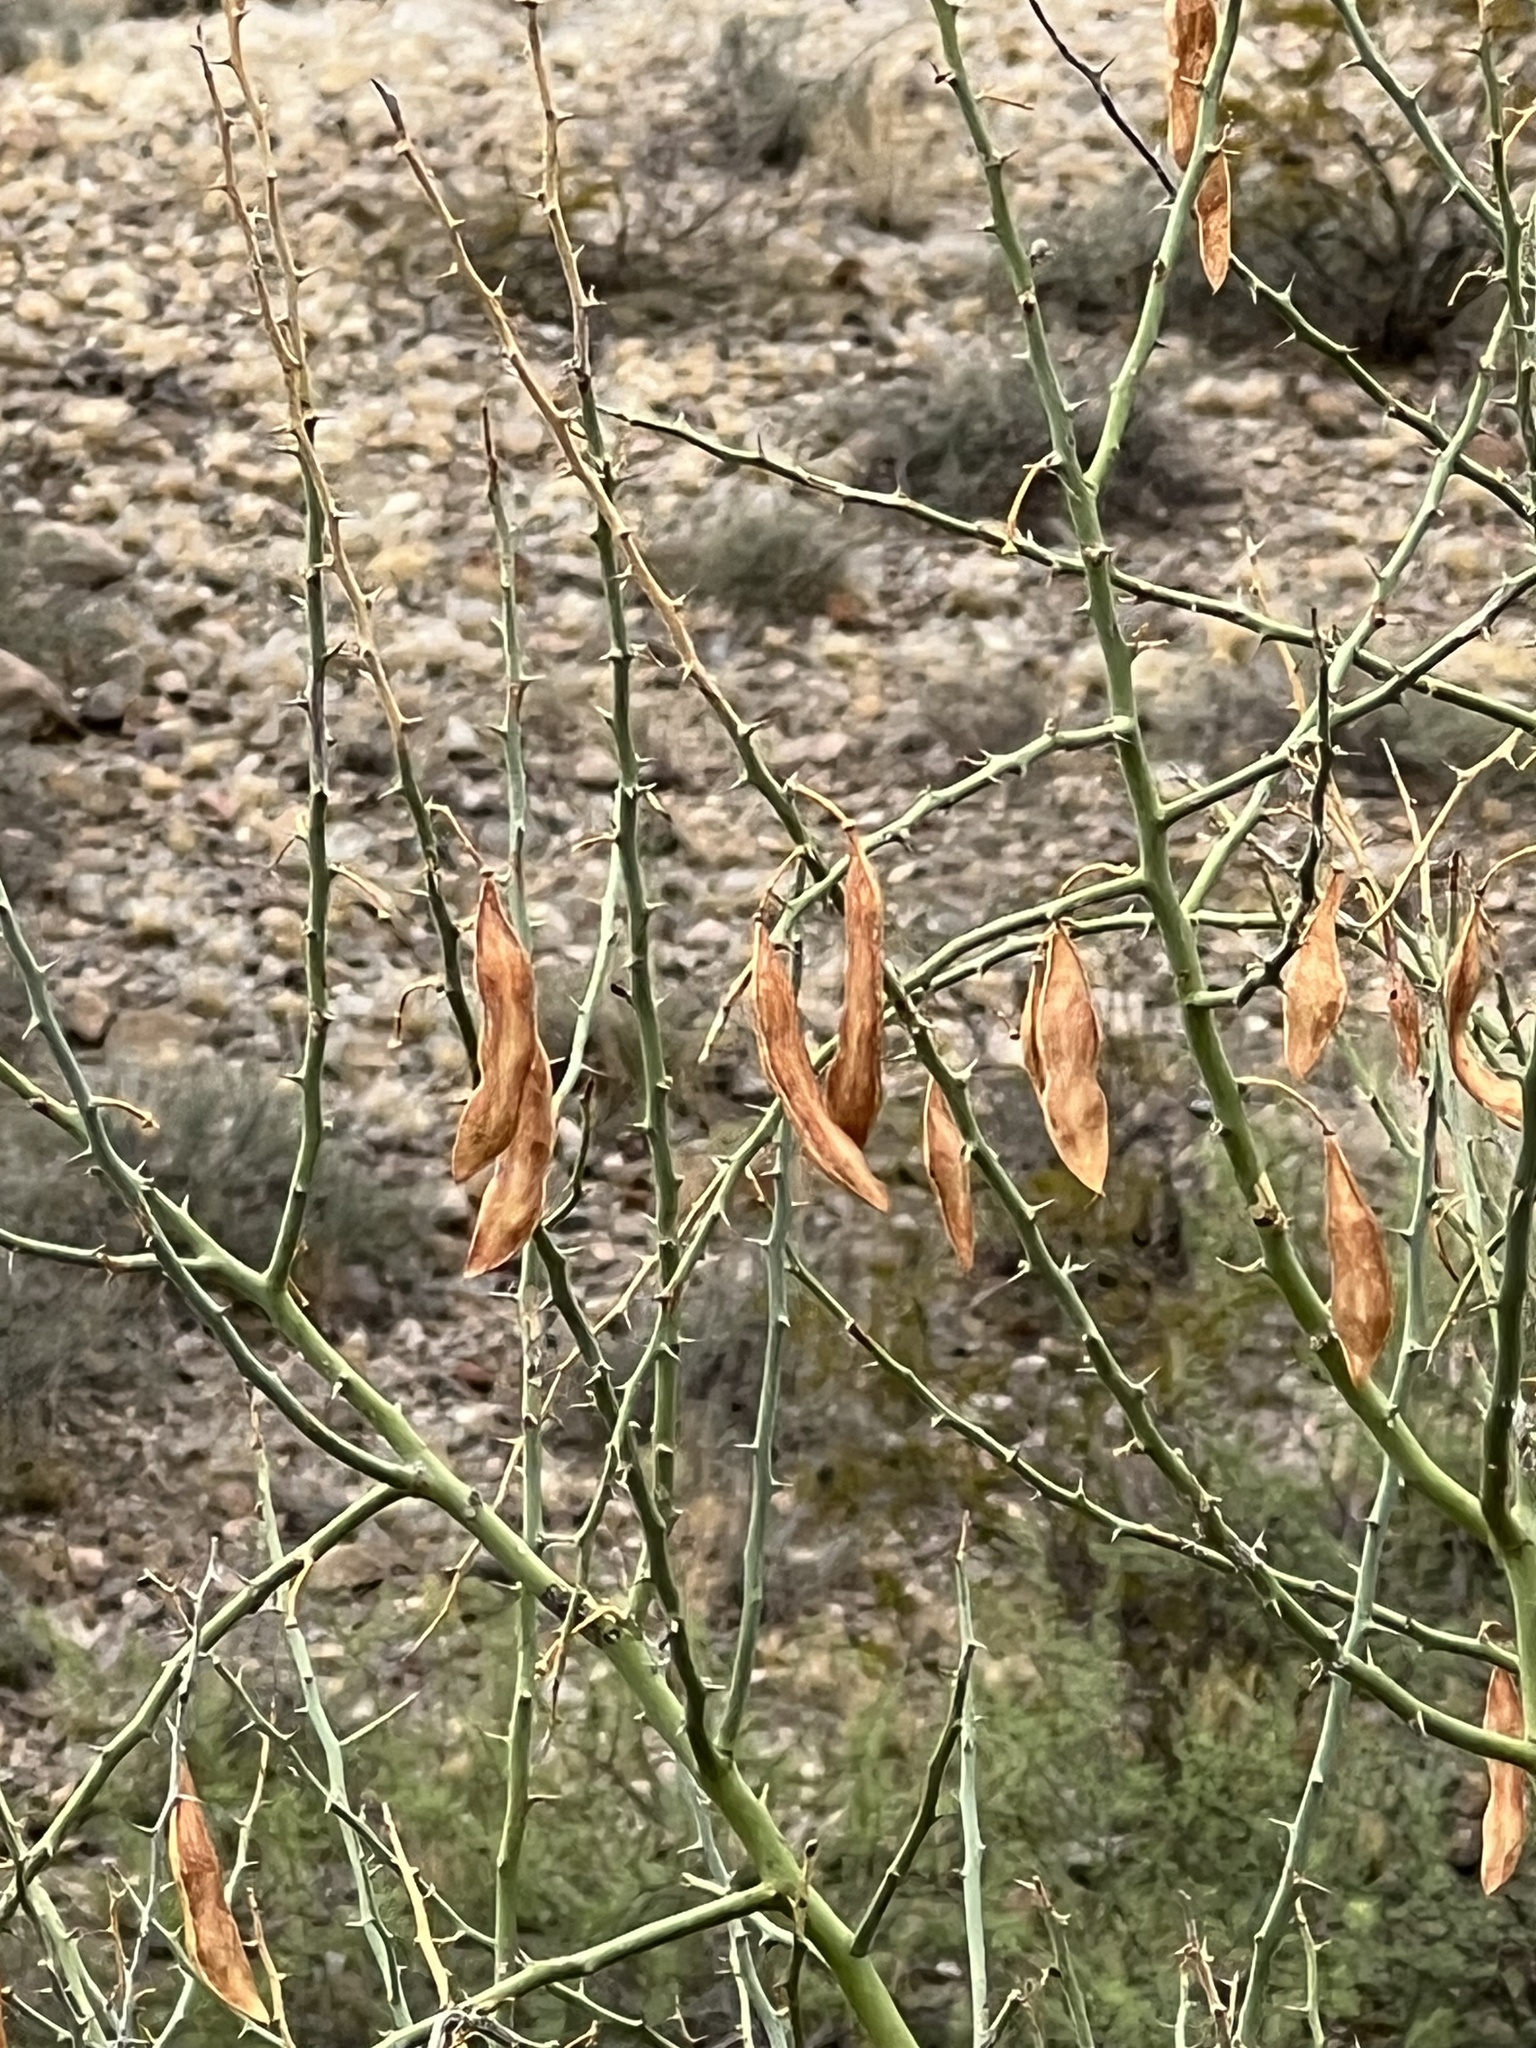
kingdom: Plantae
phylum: Tracheophyta
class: Magnoliopsida
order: Fabales
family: Fabaceae
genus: Parkinsonia
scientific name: Parkinsonia florida
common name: Blue paloverde
